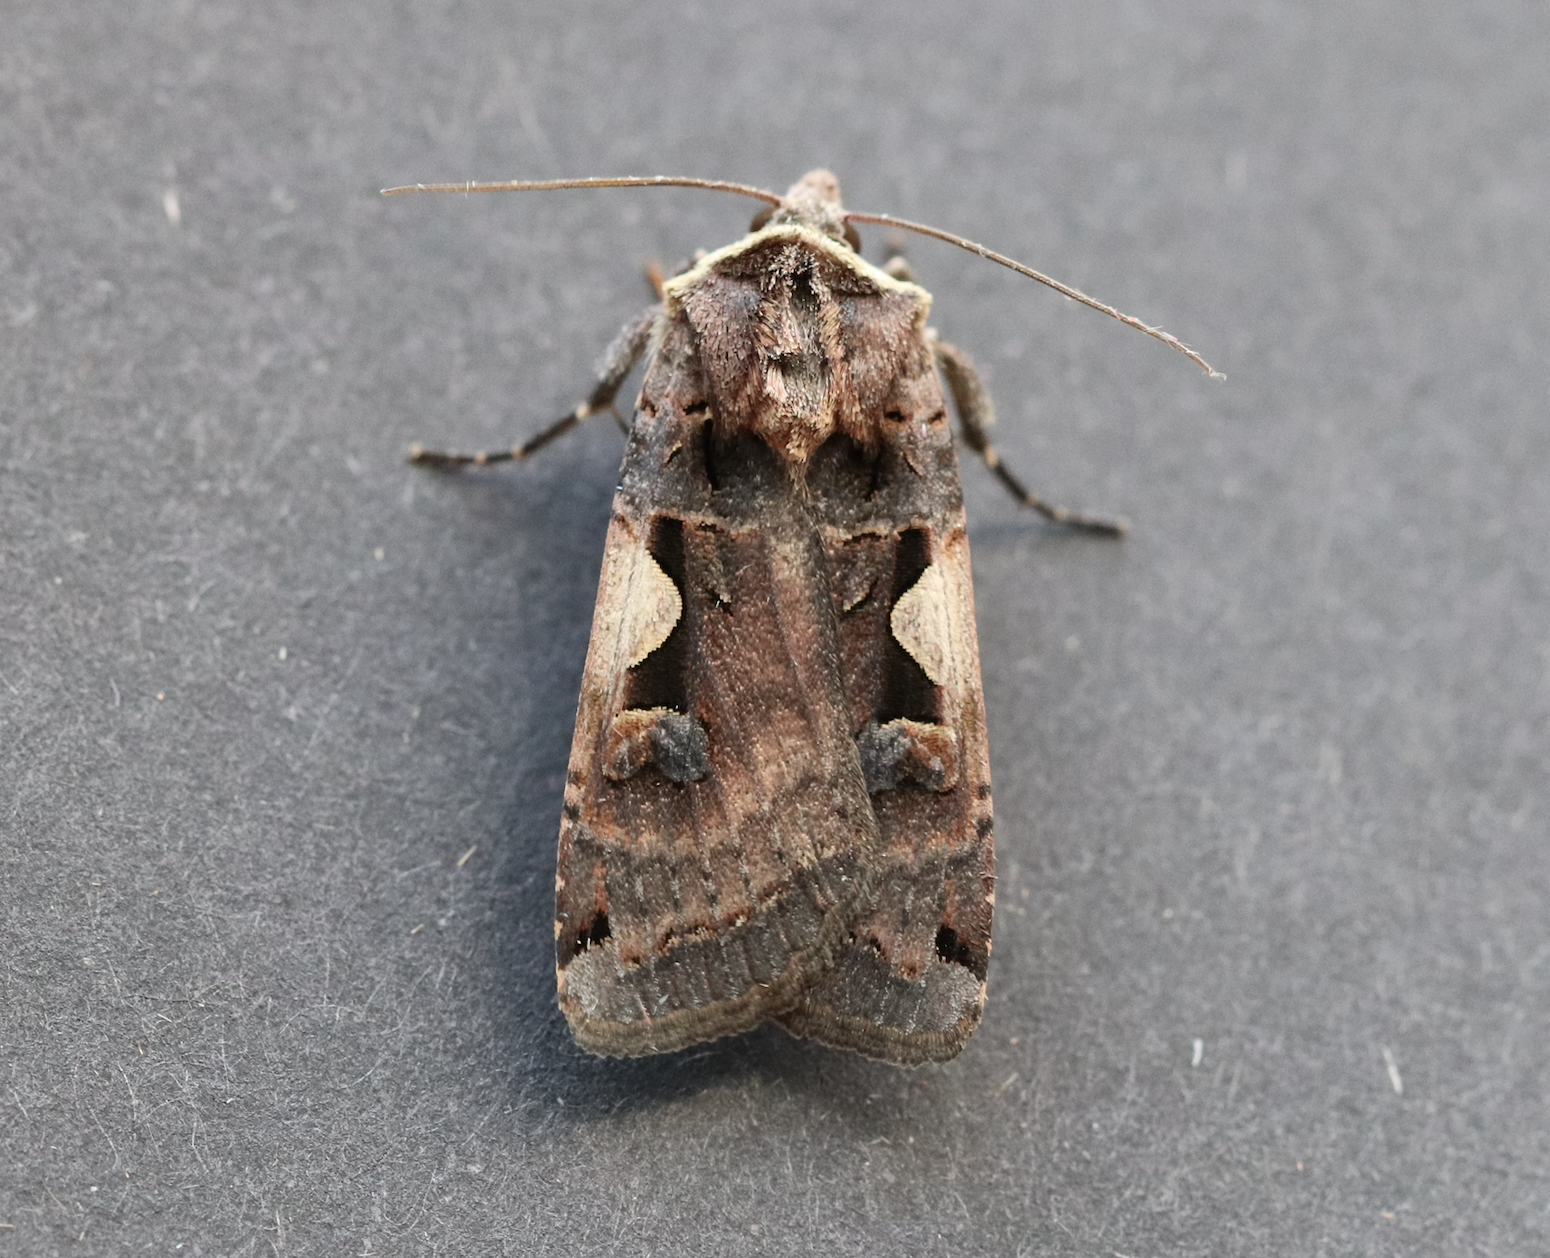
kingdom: Animalia
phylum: Arthropoda
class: Insecta
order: Lepidoptera
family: Noctuidae
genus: Xestia
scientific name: Xestia c-nigrum
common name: Setaceous hebrew character
